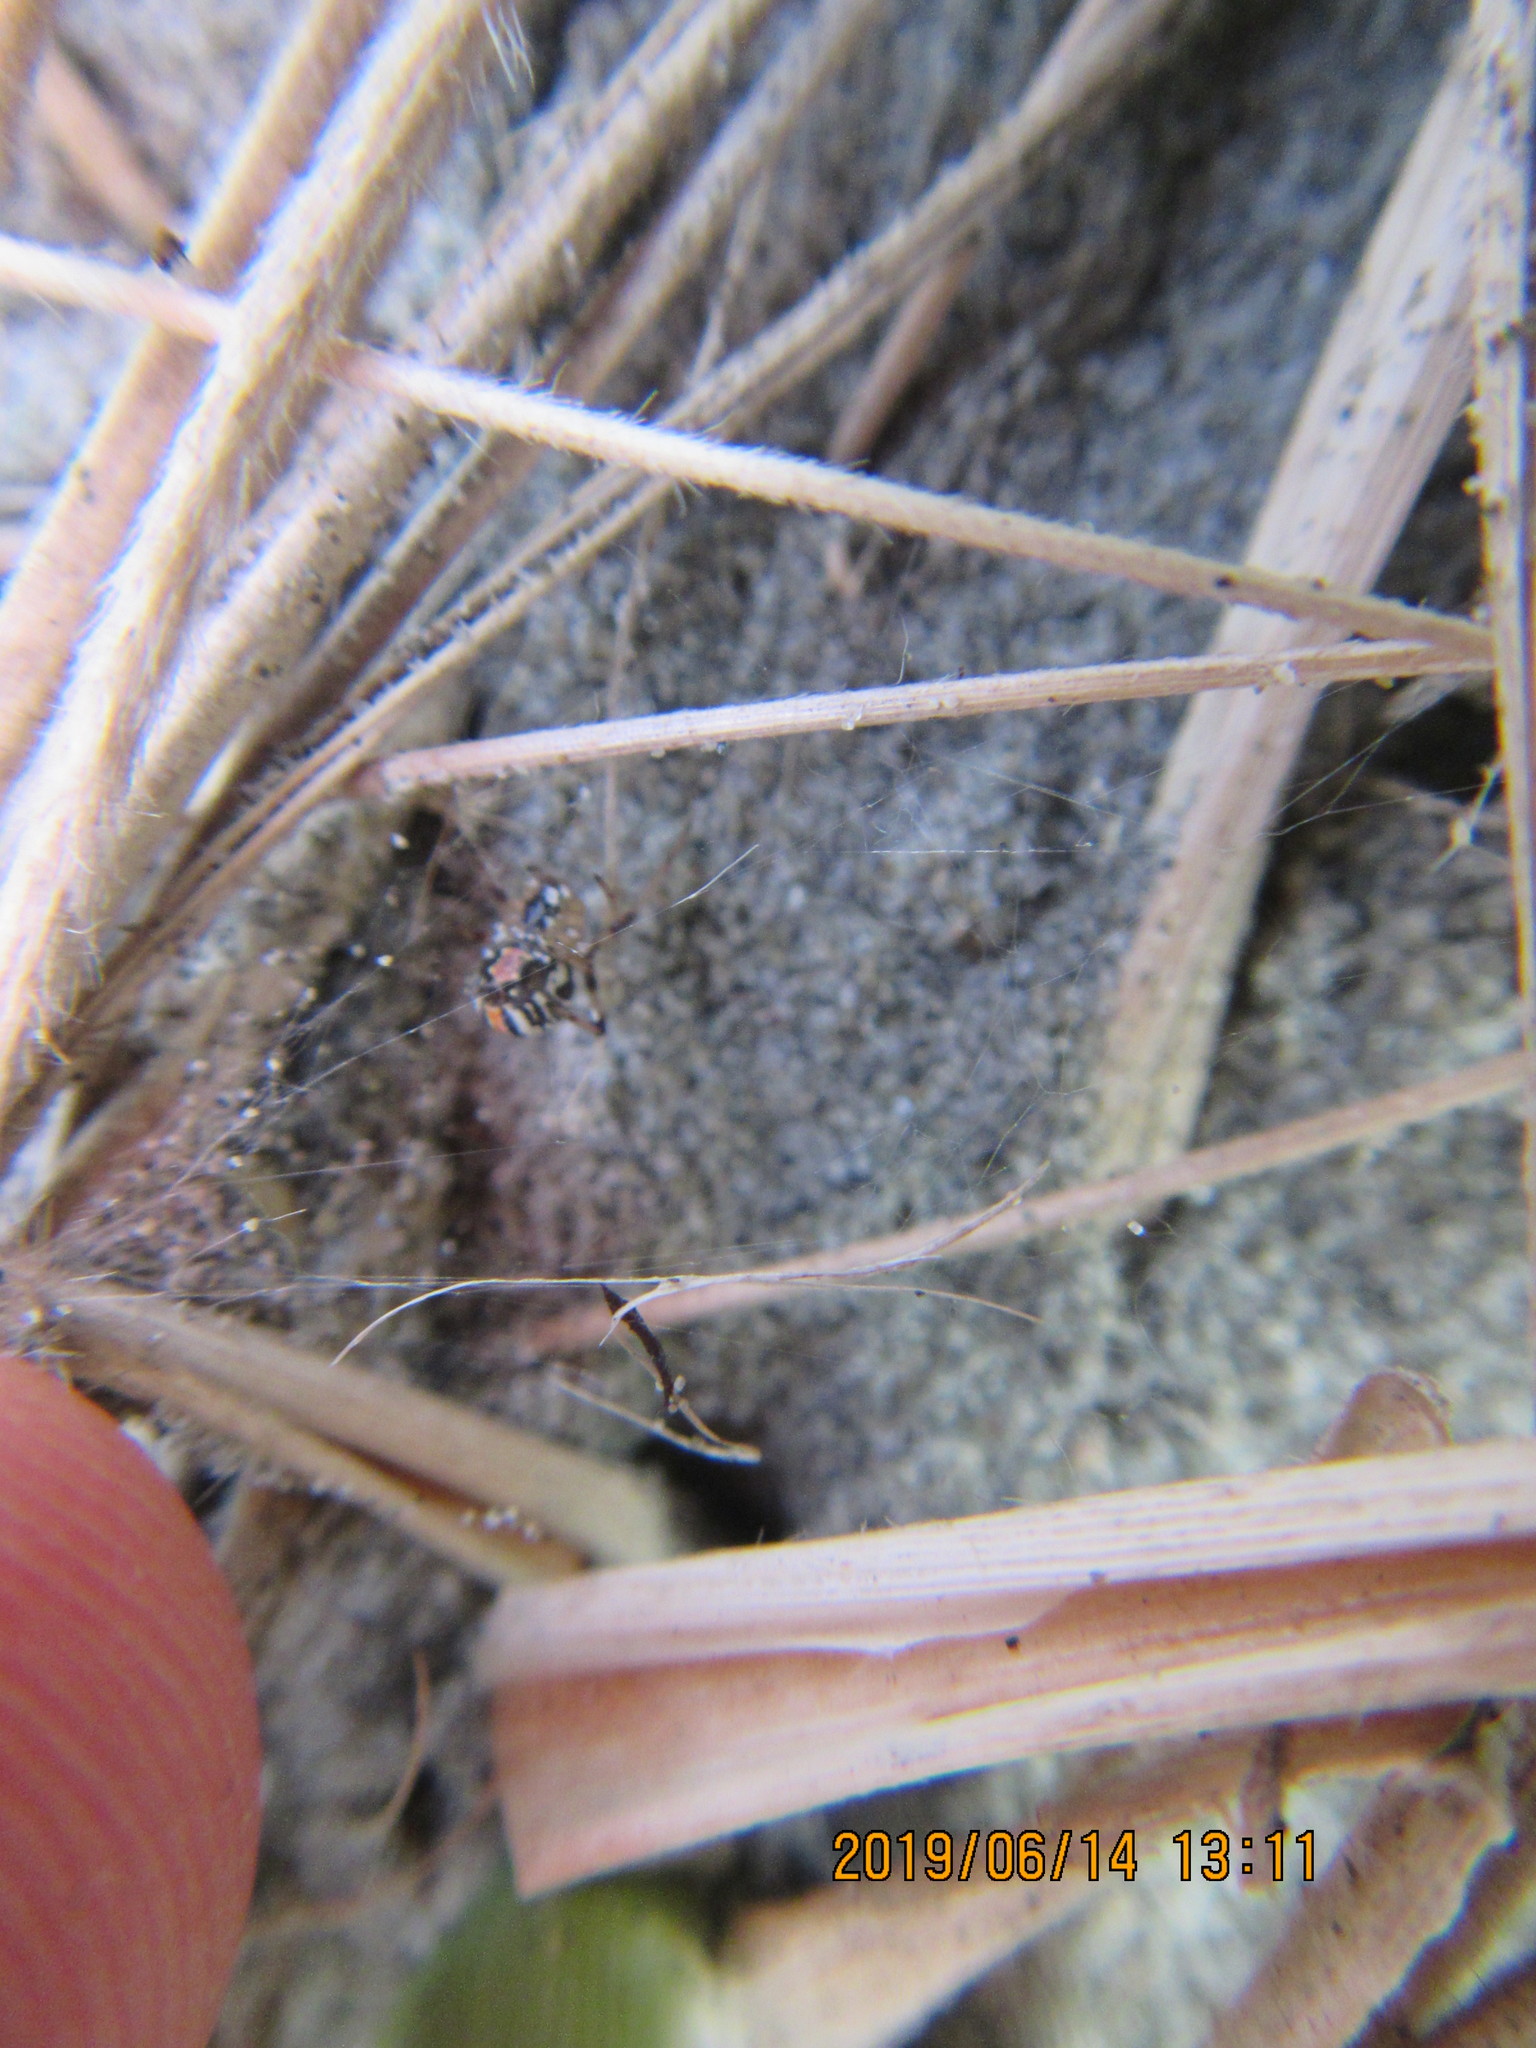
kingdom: Animalia
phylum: Arthropoda
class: Arachnida
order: Araneae
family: Theridiidae
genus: Latrodectus
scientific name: Latrodectus katipo
